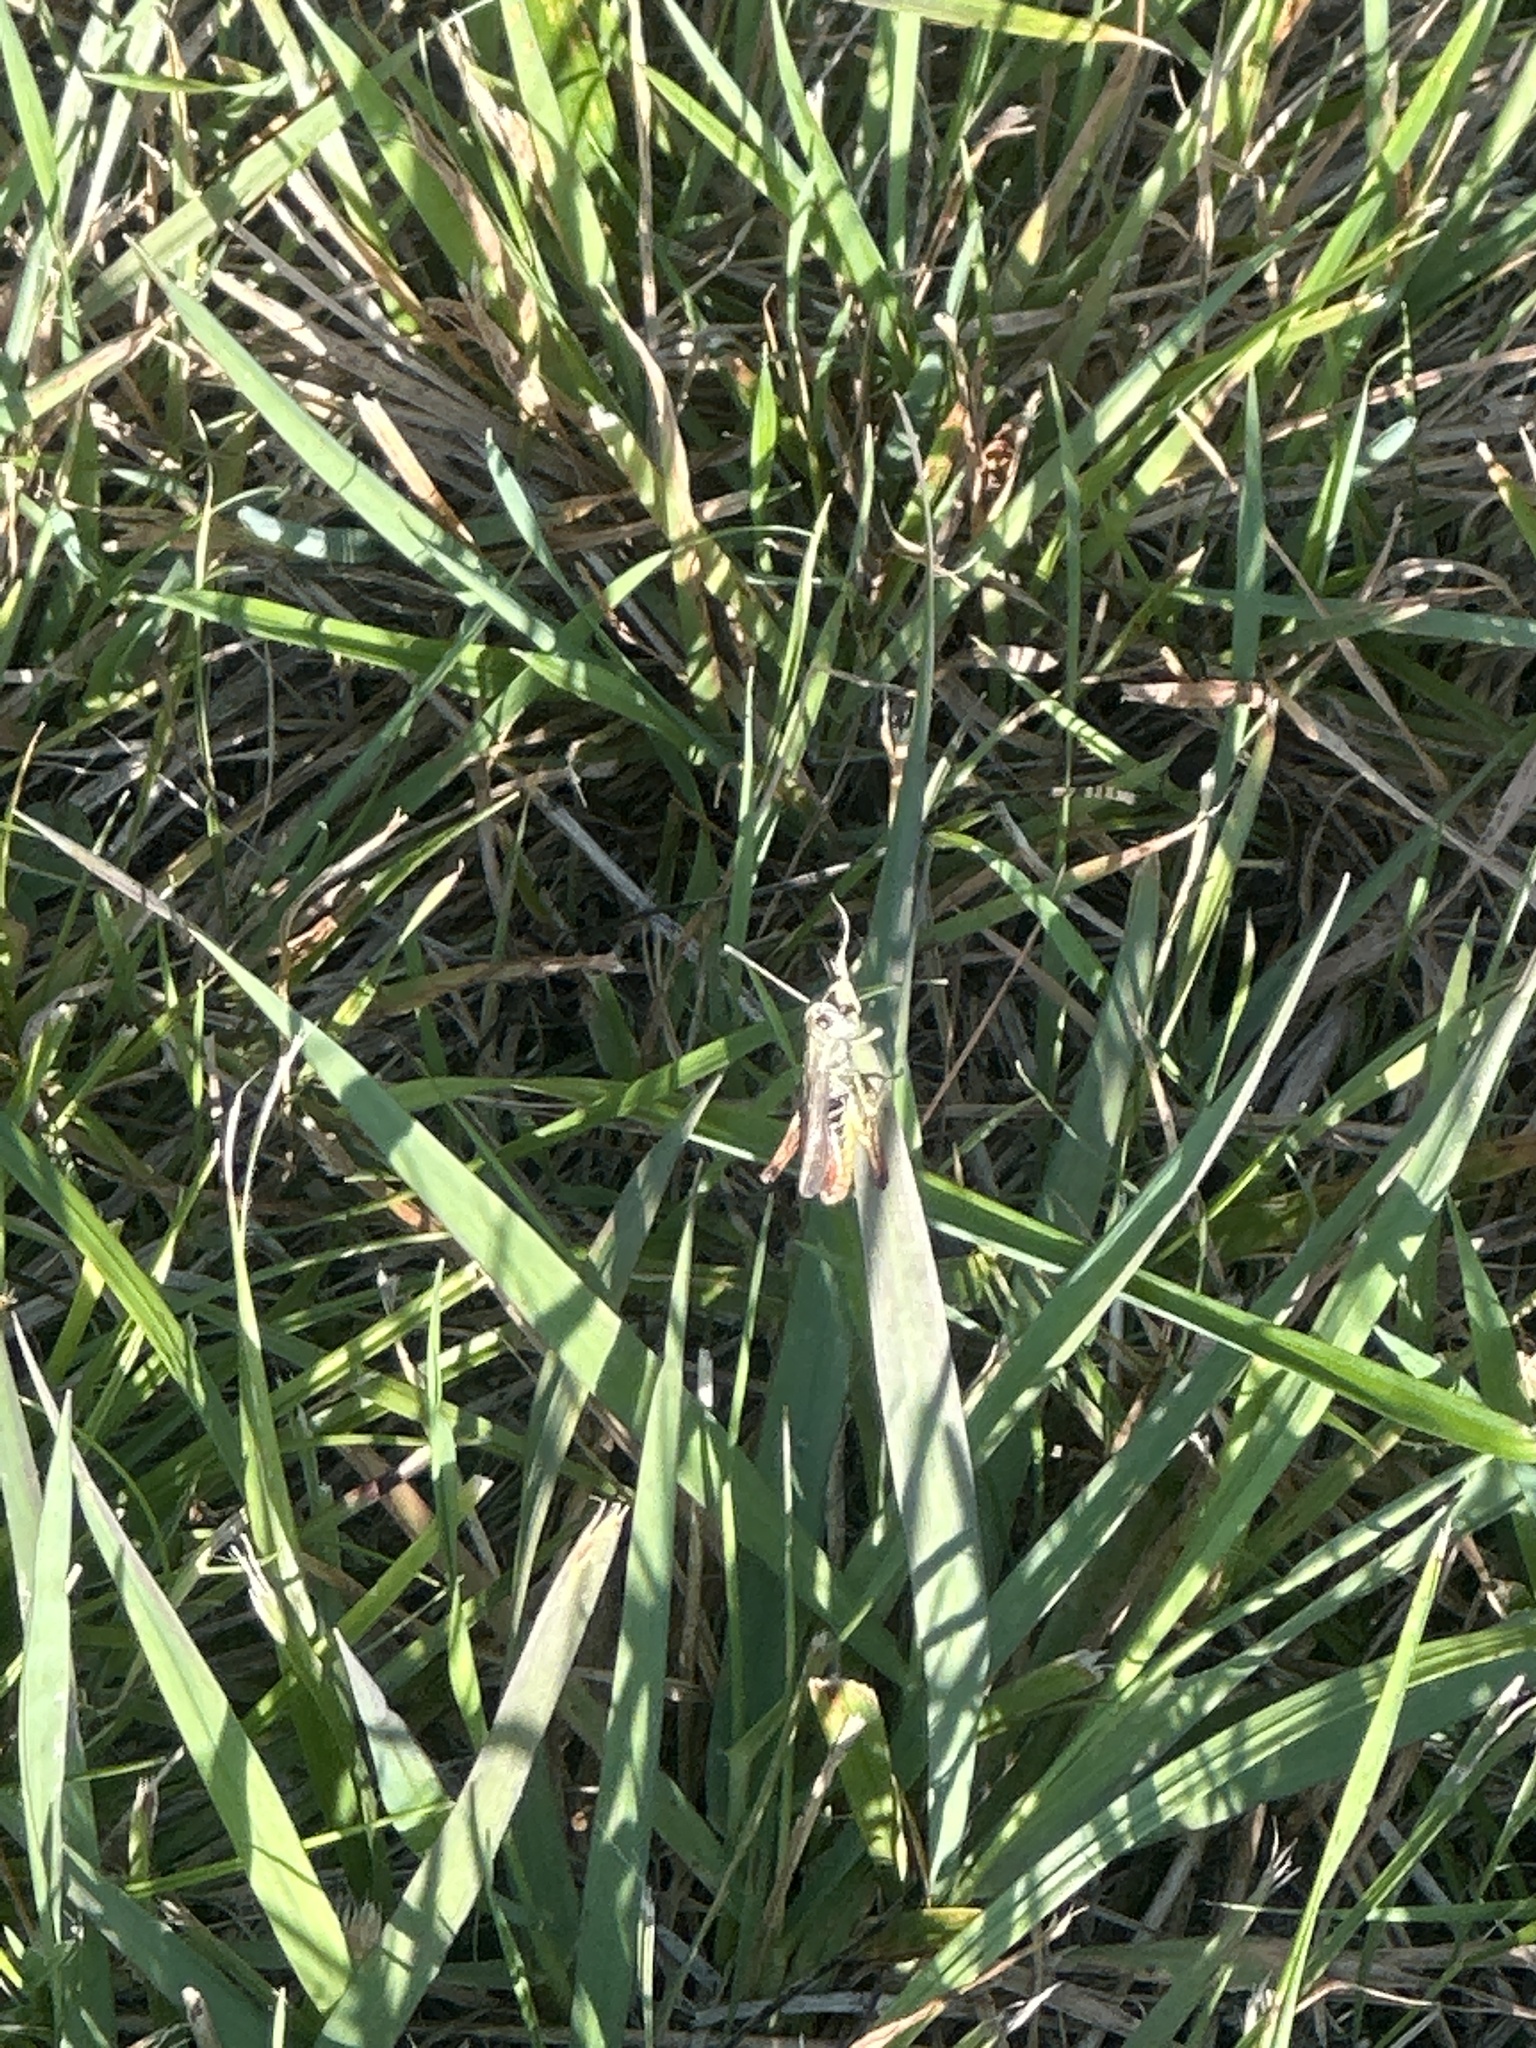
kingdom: Animalia
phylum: Arthropoda
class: Insecta
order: Orthoptera
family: Acrididae
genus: Gomphocerippus
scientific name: Gomphocerippus rufus
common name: Rufous grasshopper
